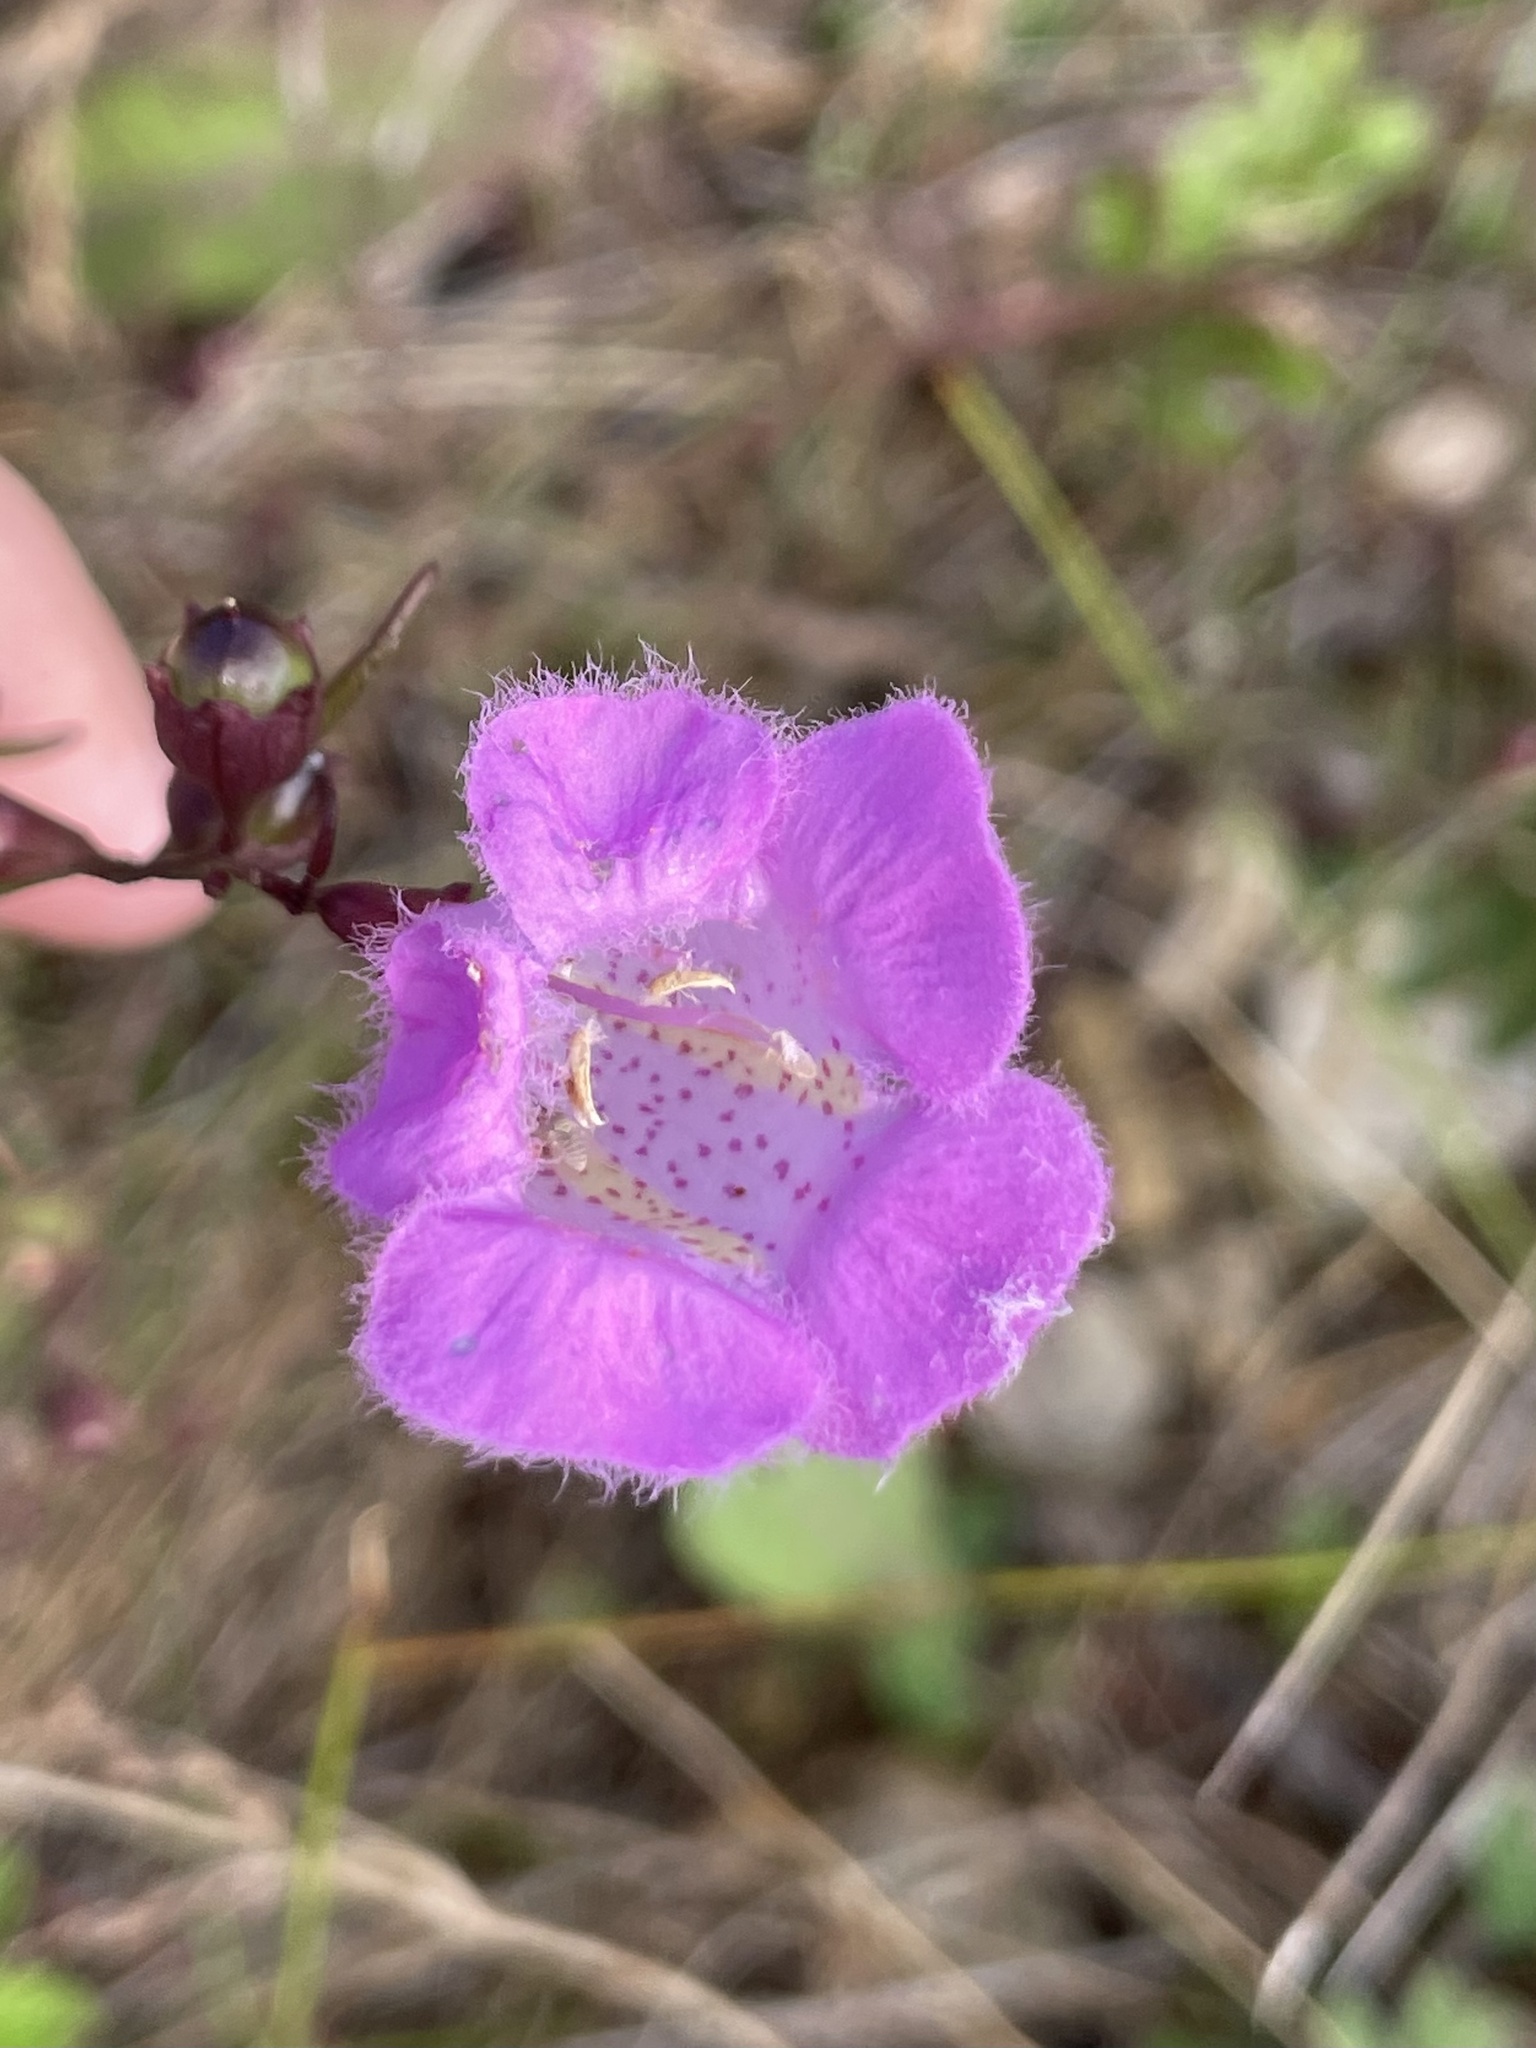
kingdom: Plantae
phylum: Tracheophyta
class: Magnoliopsida
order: Lamiales
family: Orobanchaceae
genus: Agalinis
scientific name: Agalinis purpurea
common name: Purple false foxglove
